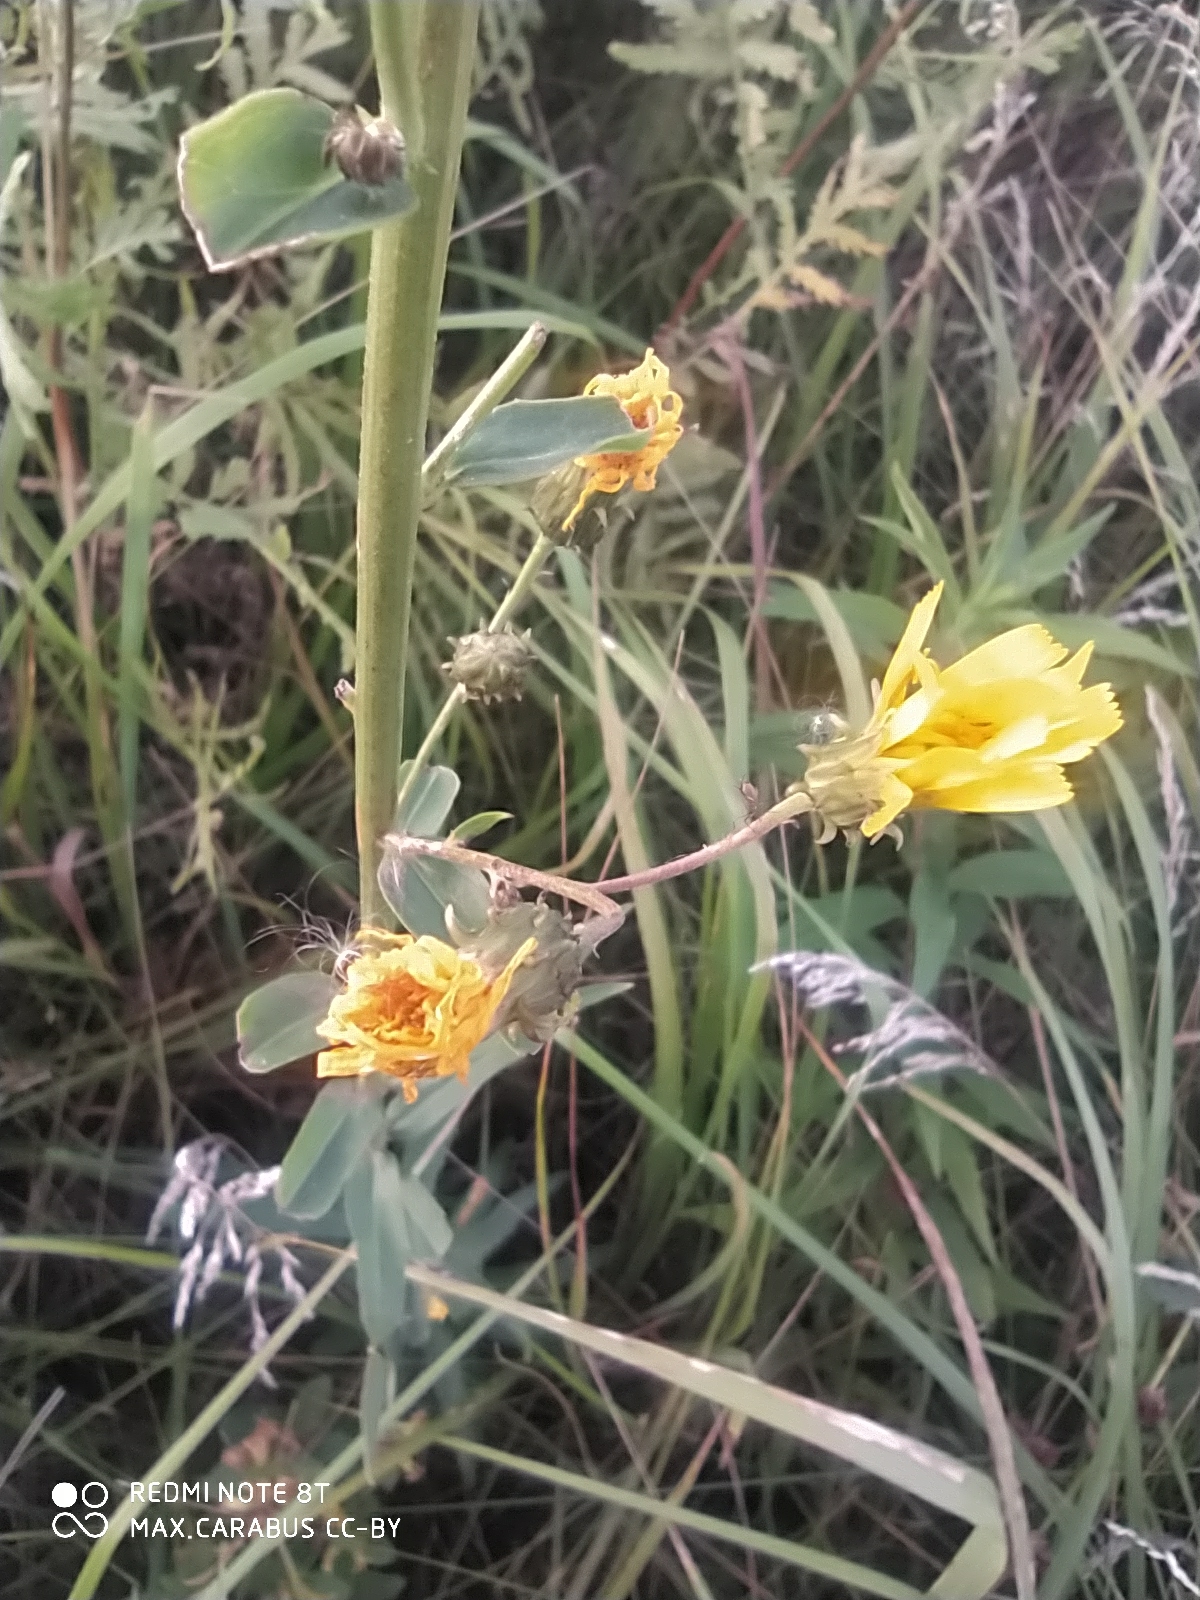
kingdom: Plantae
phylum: Tracheophyta
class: Magnoliopsida
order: Asterales
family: Asteraceae
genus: Hieracium
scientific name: Hieracium umbellatum
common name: Northern hawkweed
